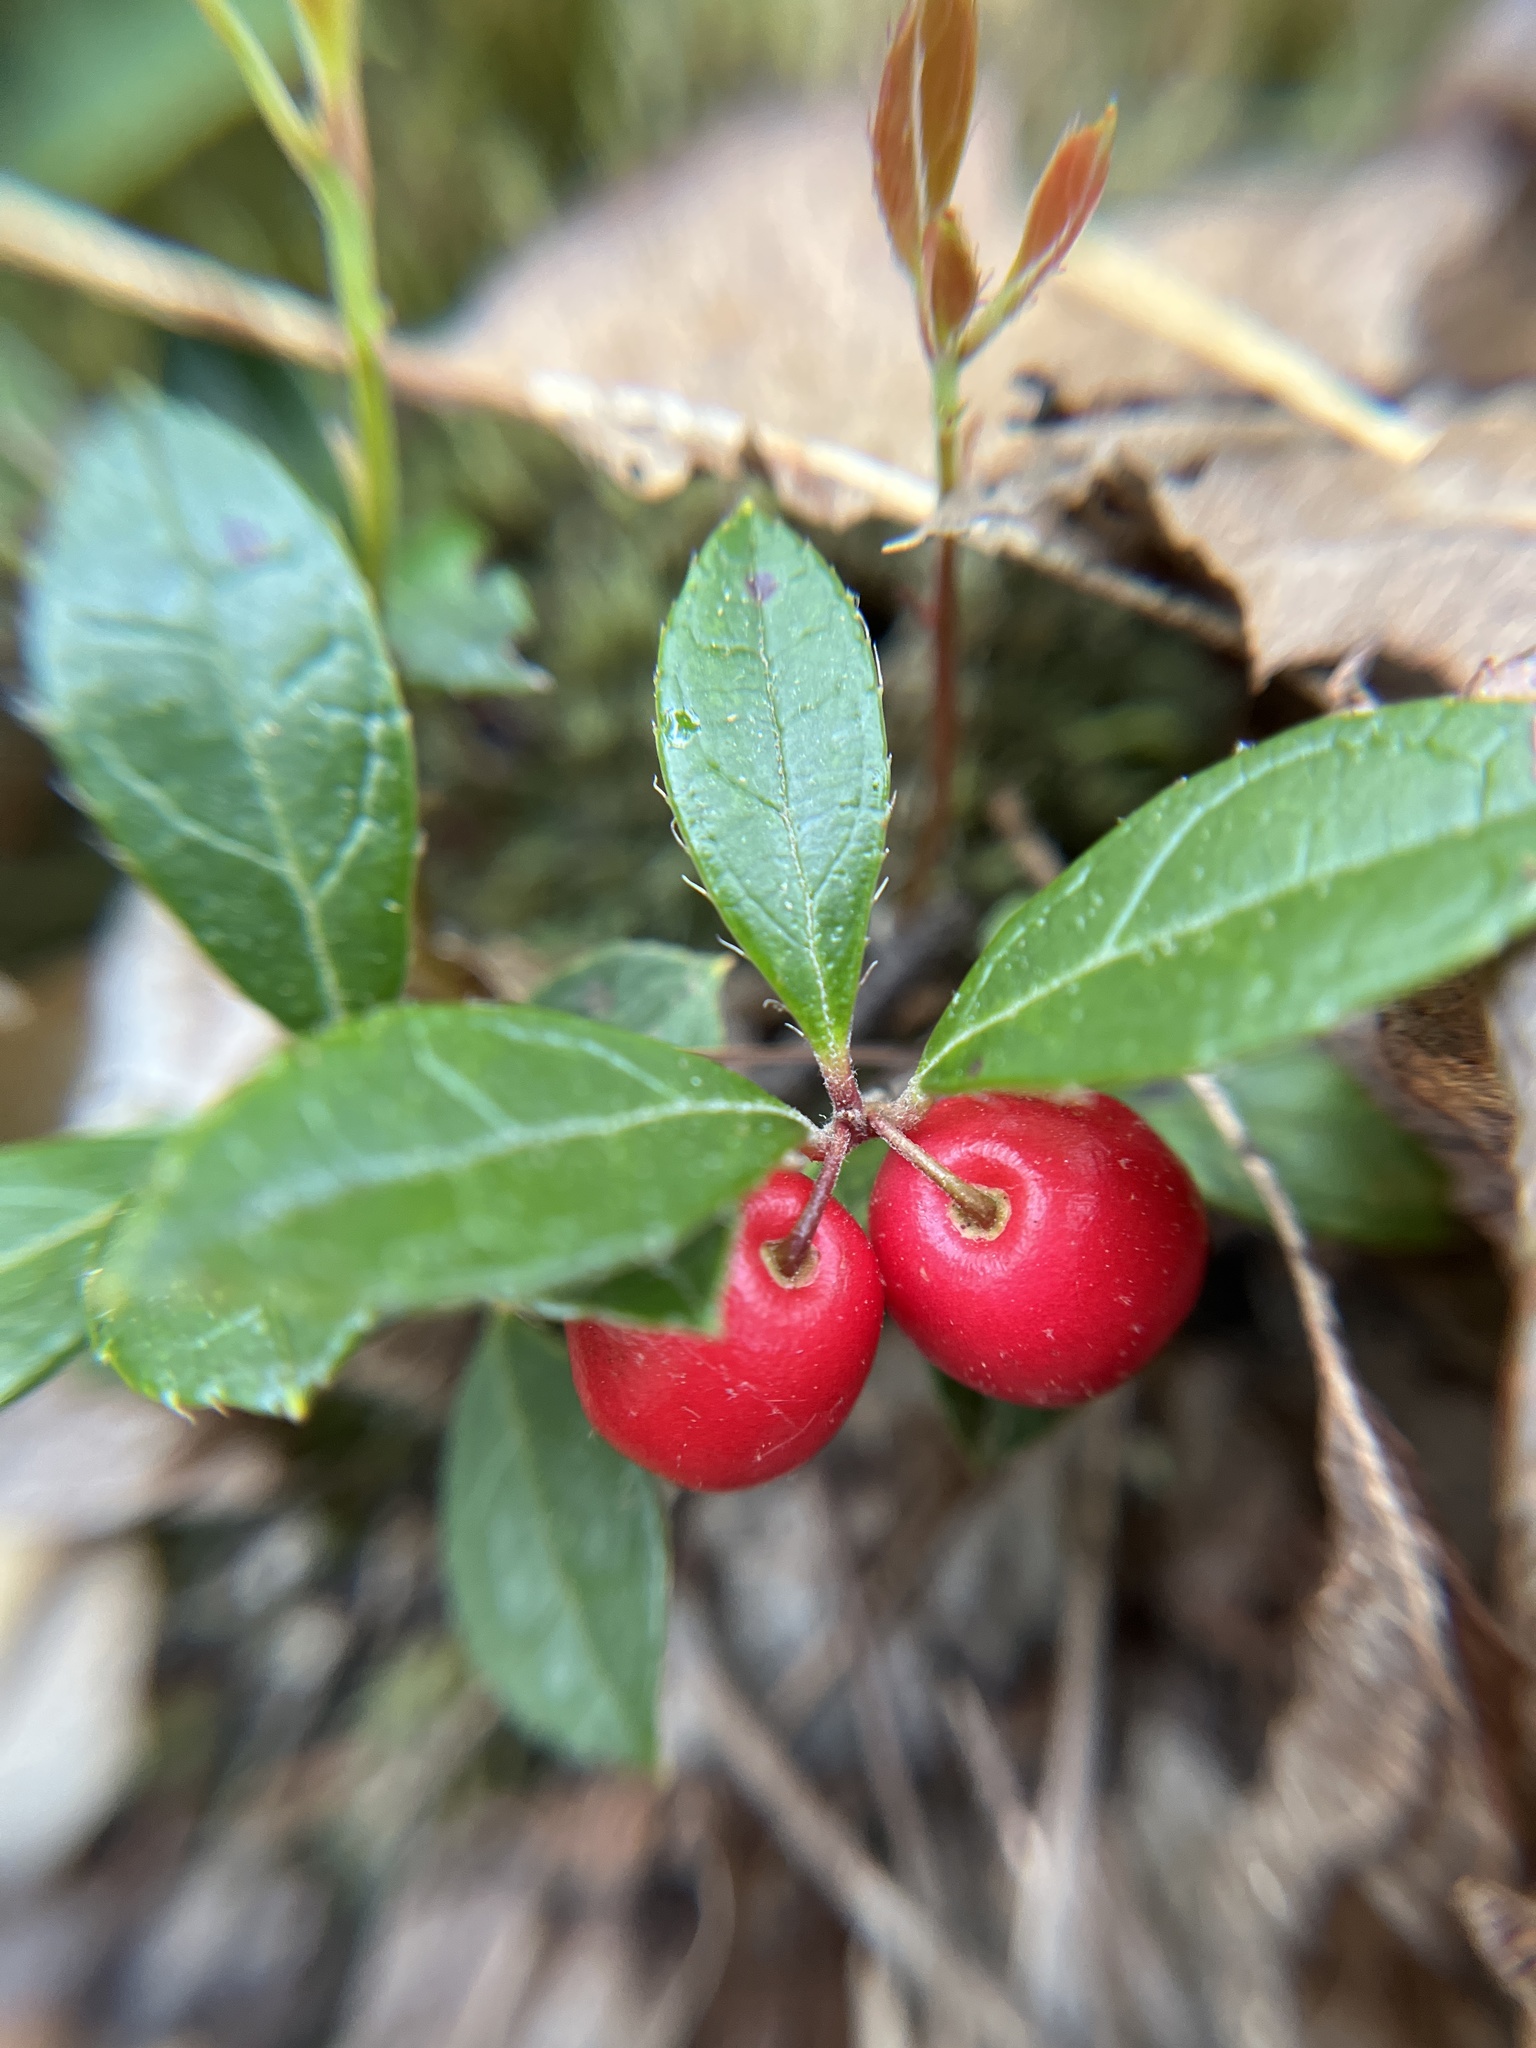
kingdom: Plantae
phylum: Tracheophyta
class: Magnoliopsida
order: Ericales
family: Ericaceae
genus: Gaultheria
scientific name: Gaultheria procumbens
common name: Checkerberry
